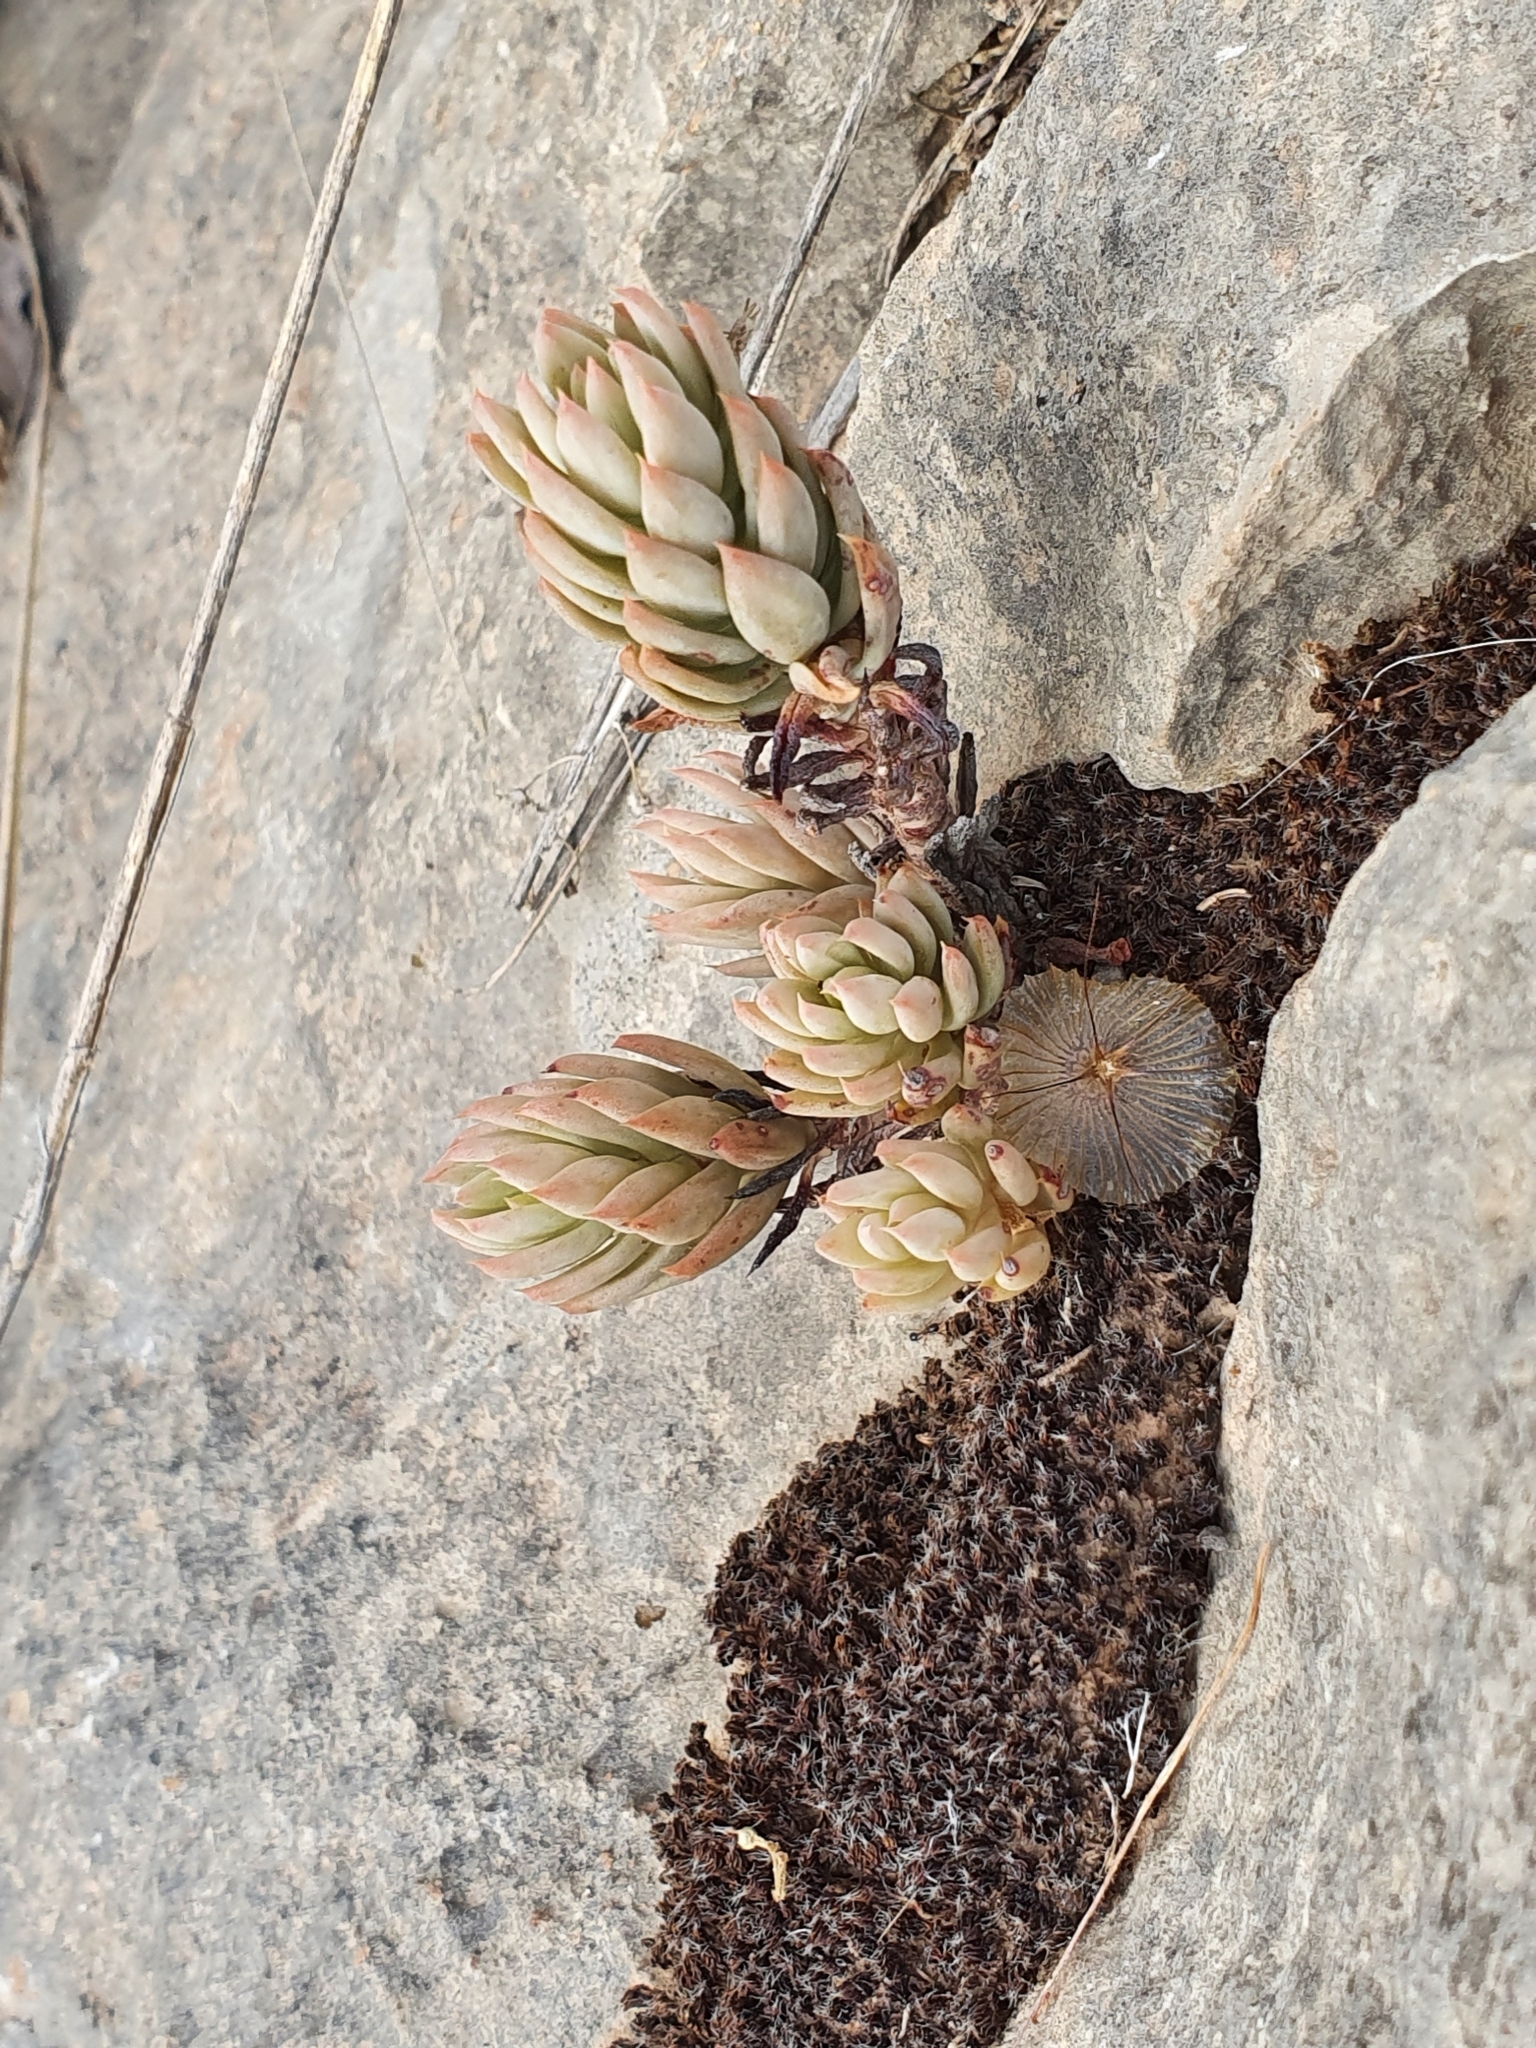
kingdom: Plantae
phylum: Tracheophyta
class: Magnoliopsida
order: Saxifragales
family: Crassulaceae
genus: Petrosedum
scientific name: Petrosedum sediforme
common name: Pale stonecrop
